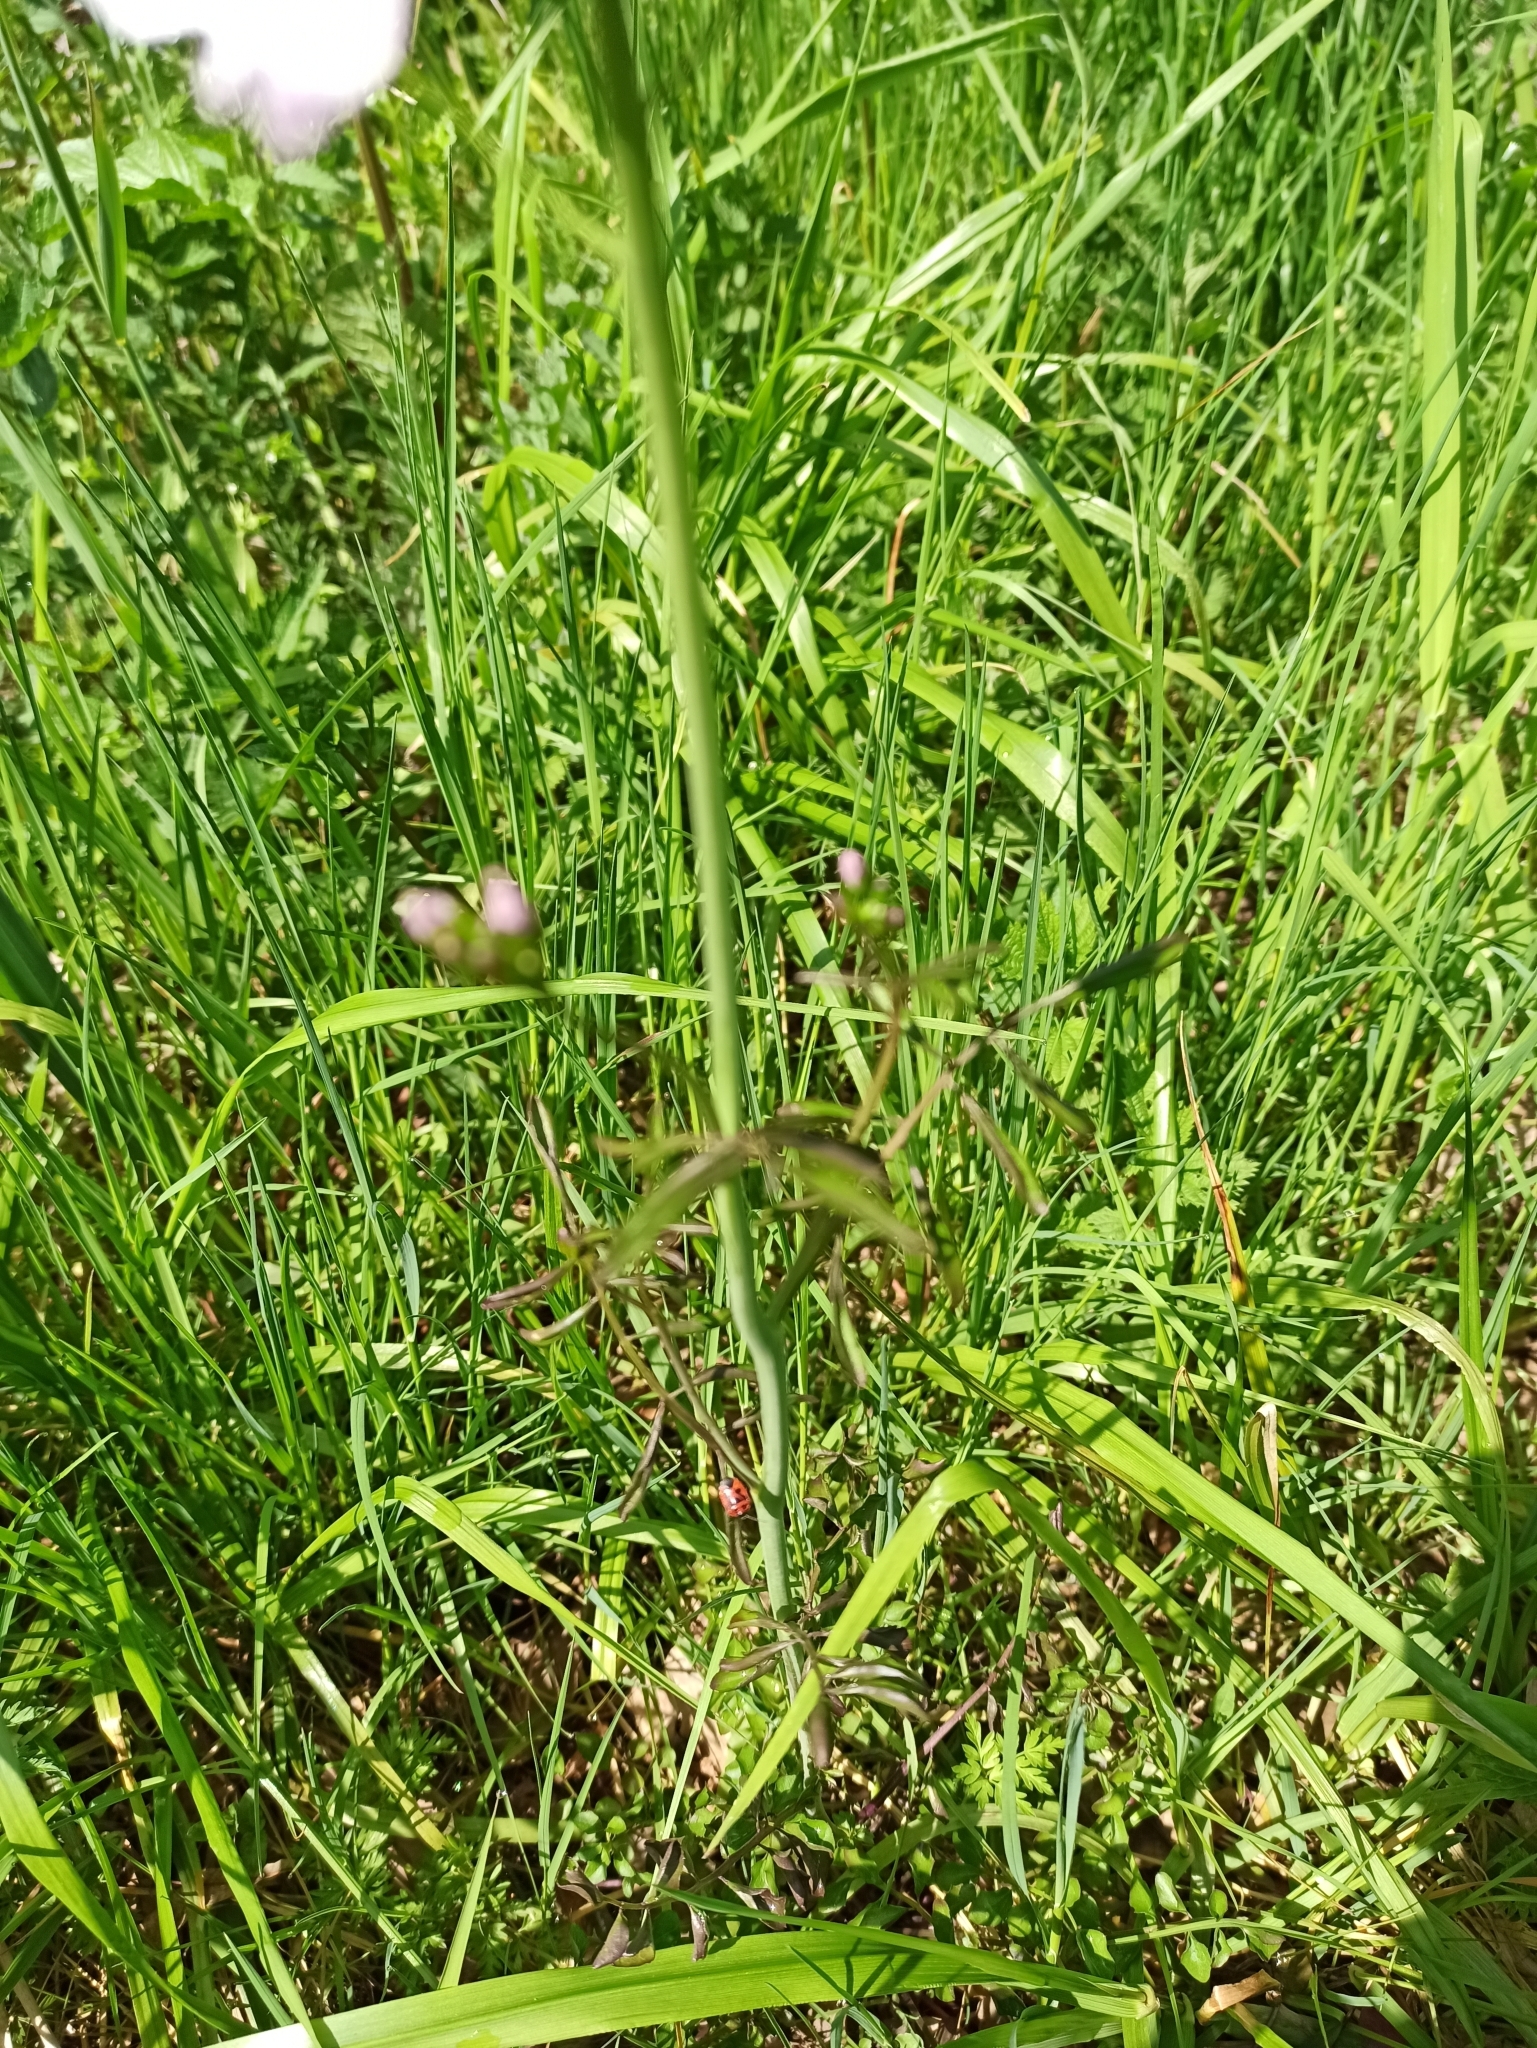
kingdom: Plantae
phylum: Tracheophyta
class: Magnoliopsida
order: Brassicales
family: Brassicaceae
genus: Cardamine
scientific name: Cardamine pratensis
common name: Cuckoo flower
